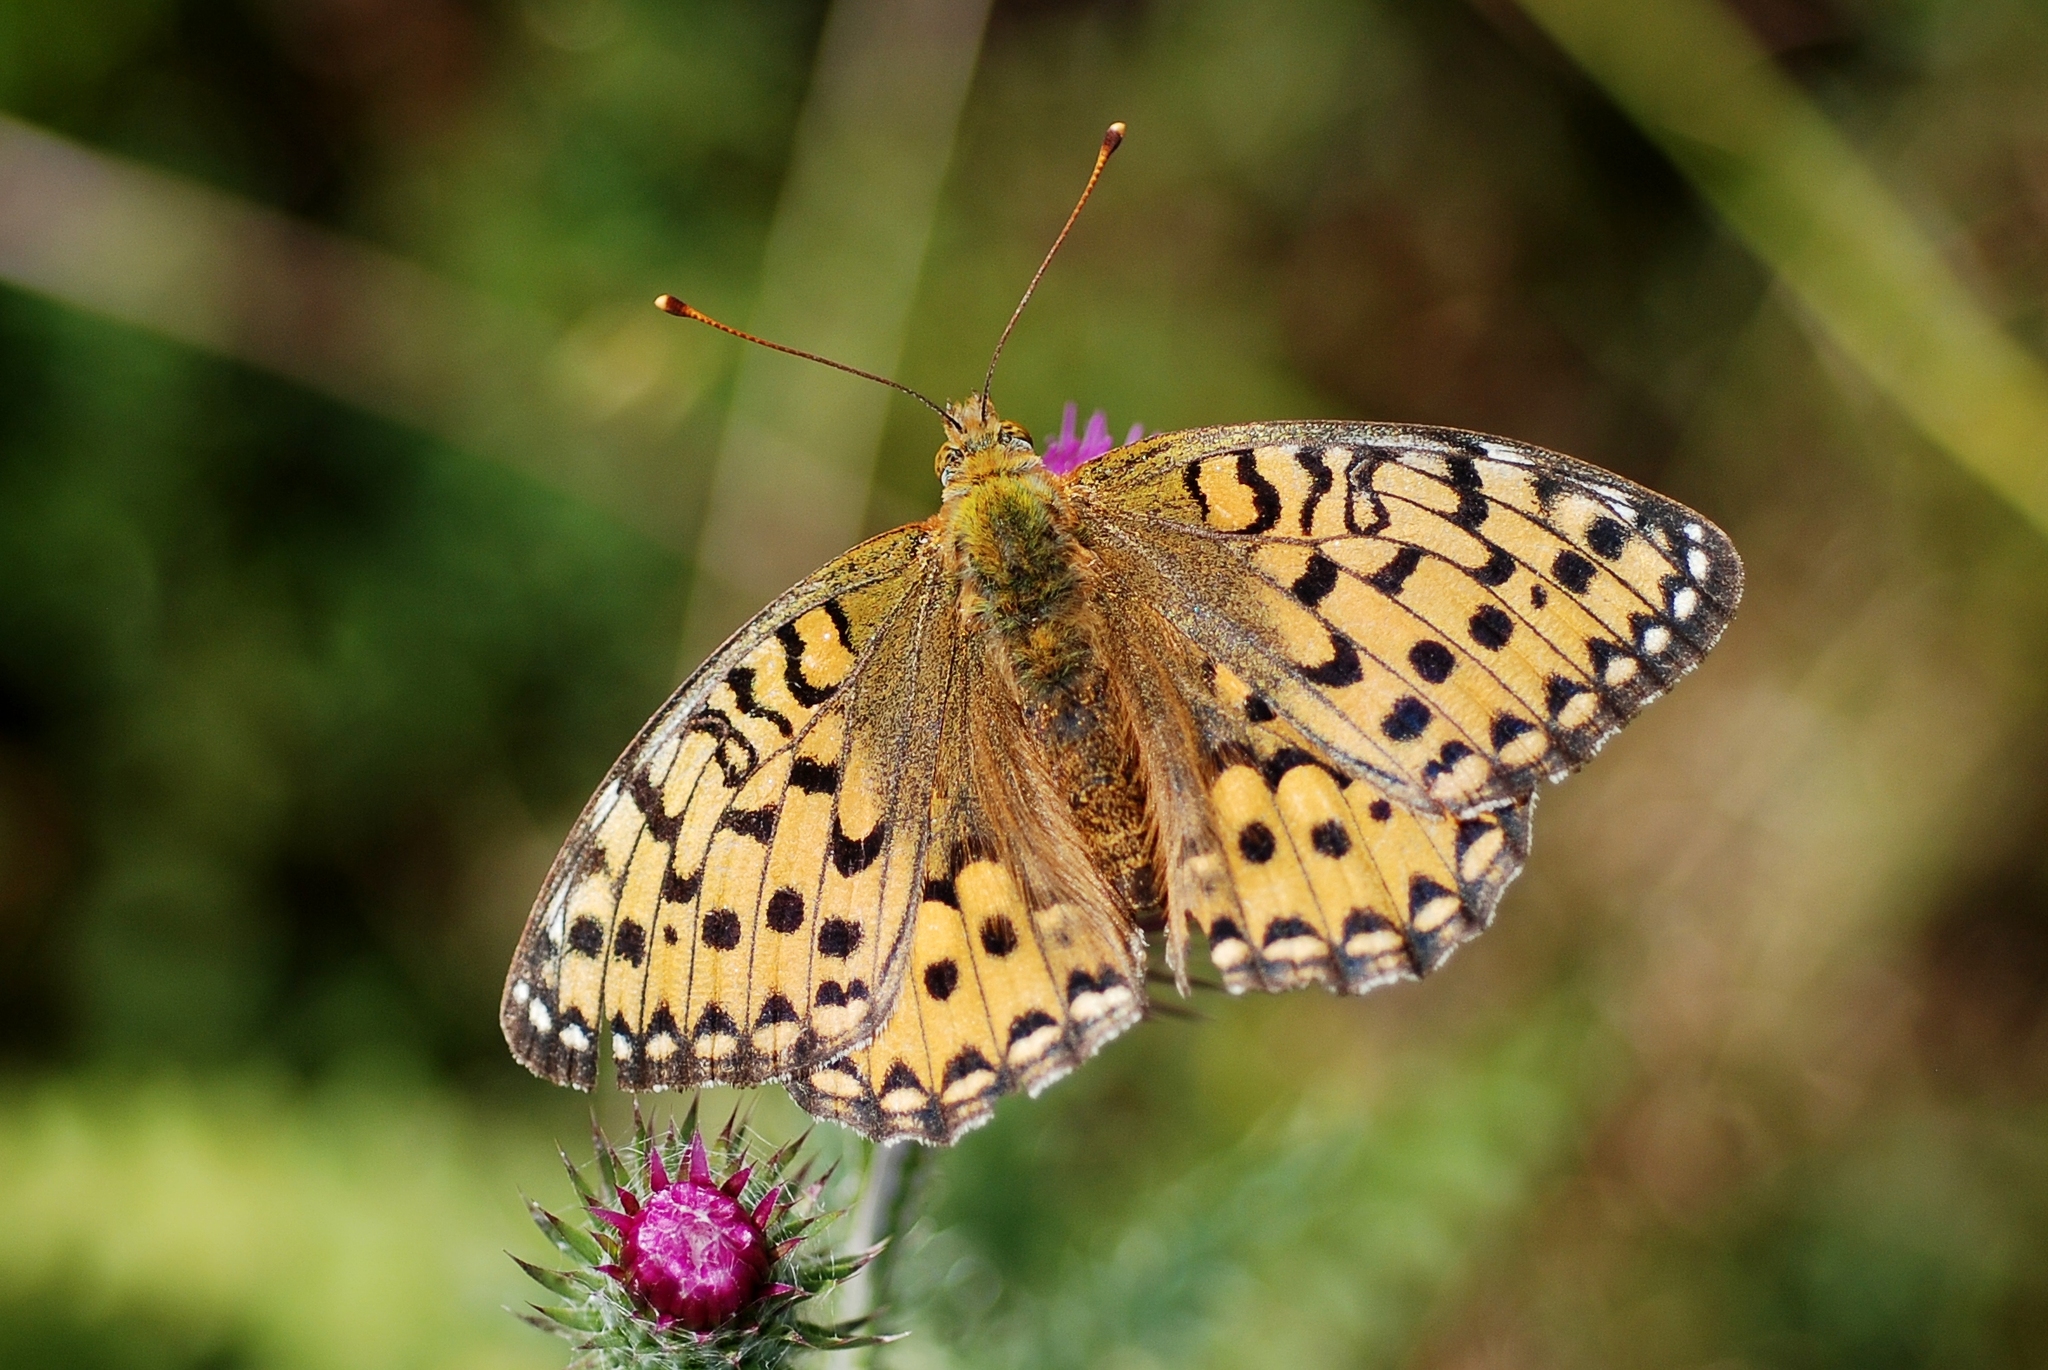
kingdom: Animalia
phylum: Arthropoda
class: Insecta
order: Lepidoptera
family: Nymphalidae
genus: Speyeria
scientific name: Speyeria aglaja
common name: Dark green fritillary
